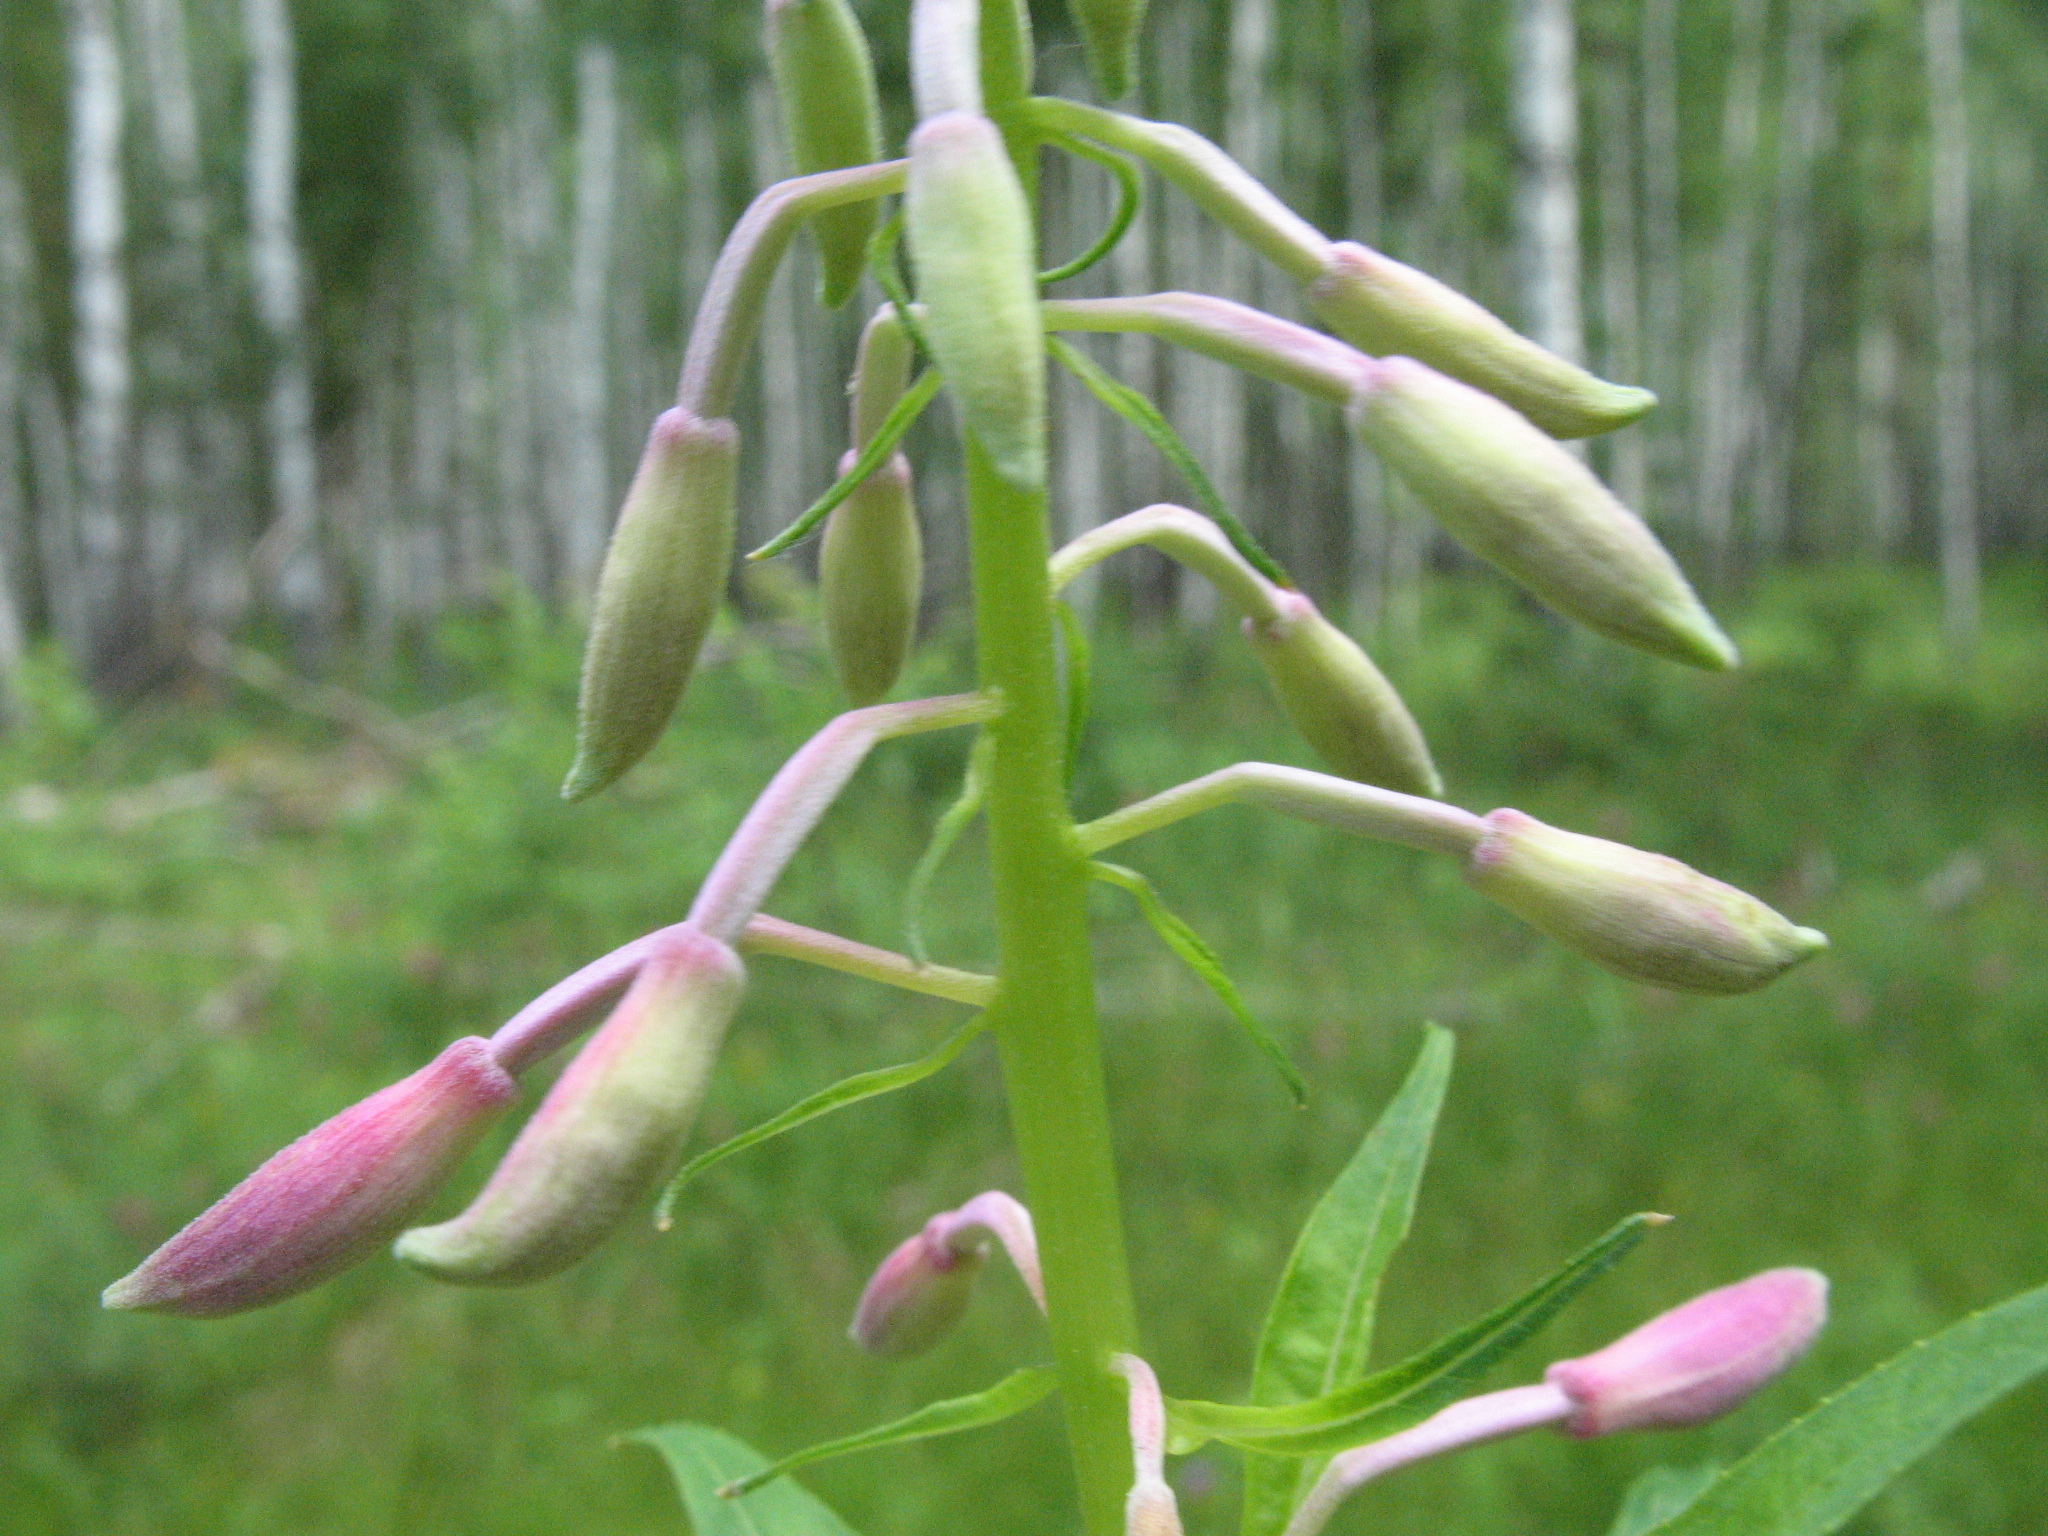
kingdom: Plantae
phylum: Tracheophyta
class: Magnoliopsida
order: Myrtales
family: Onagraceae
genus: Chamaenerion
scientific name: Chamaenerion angustifolium
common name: Fireweed
